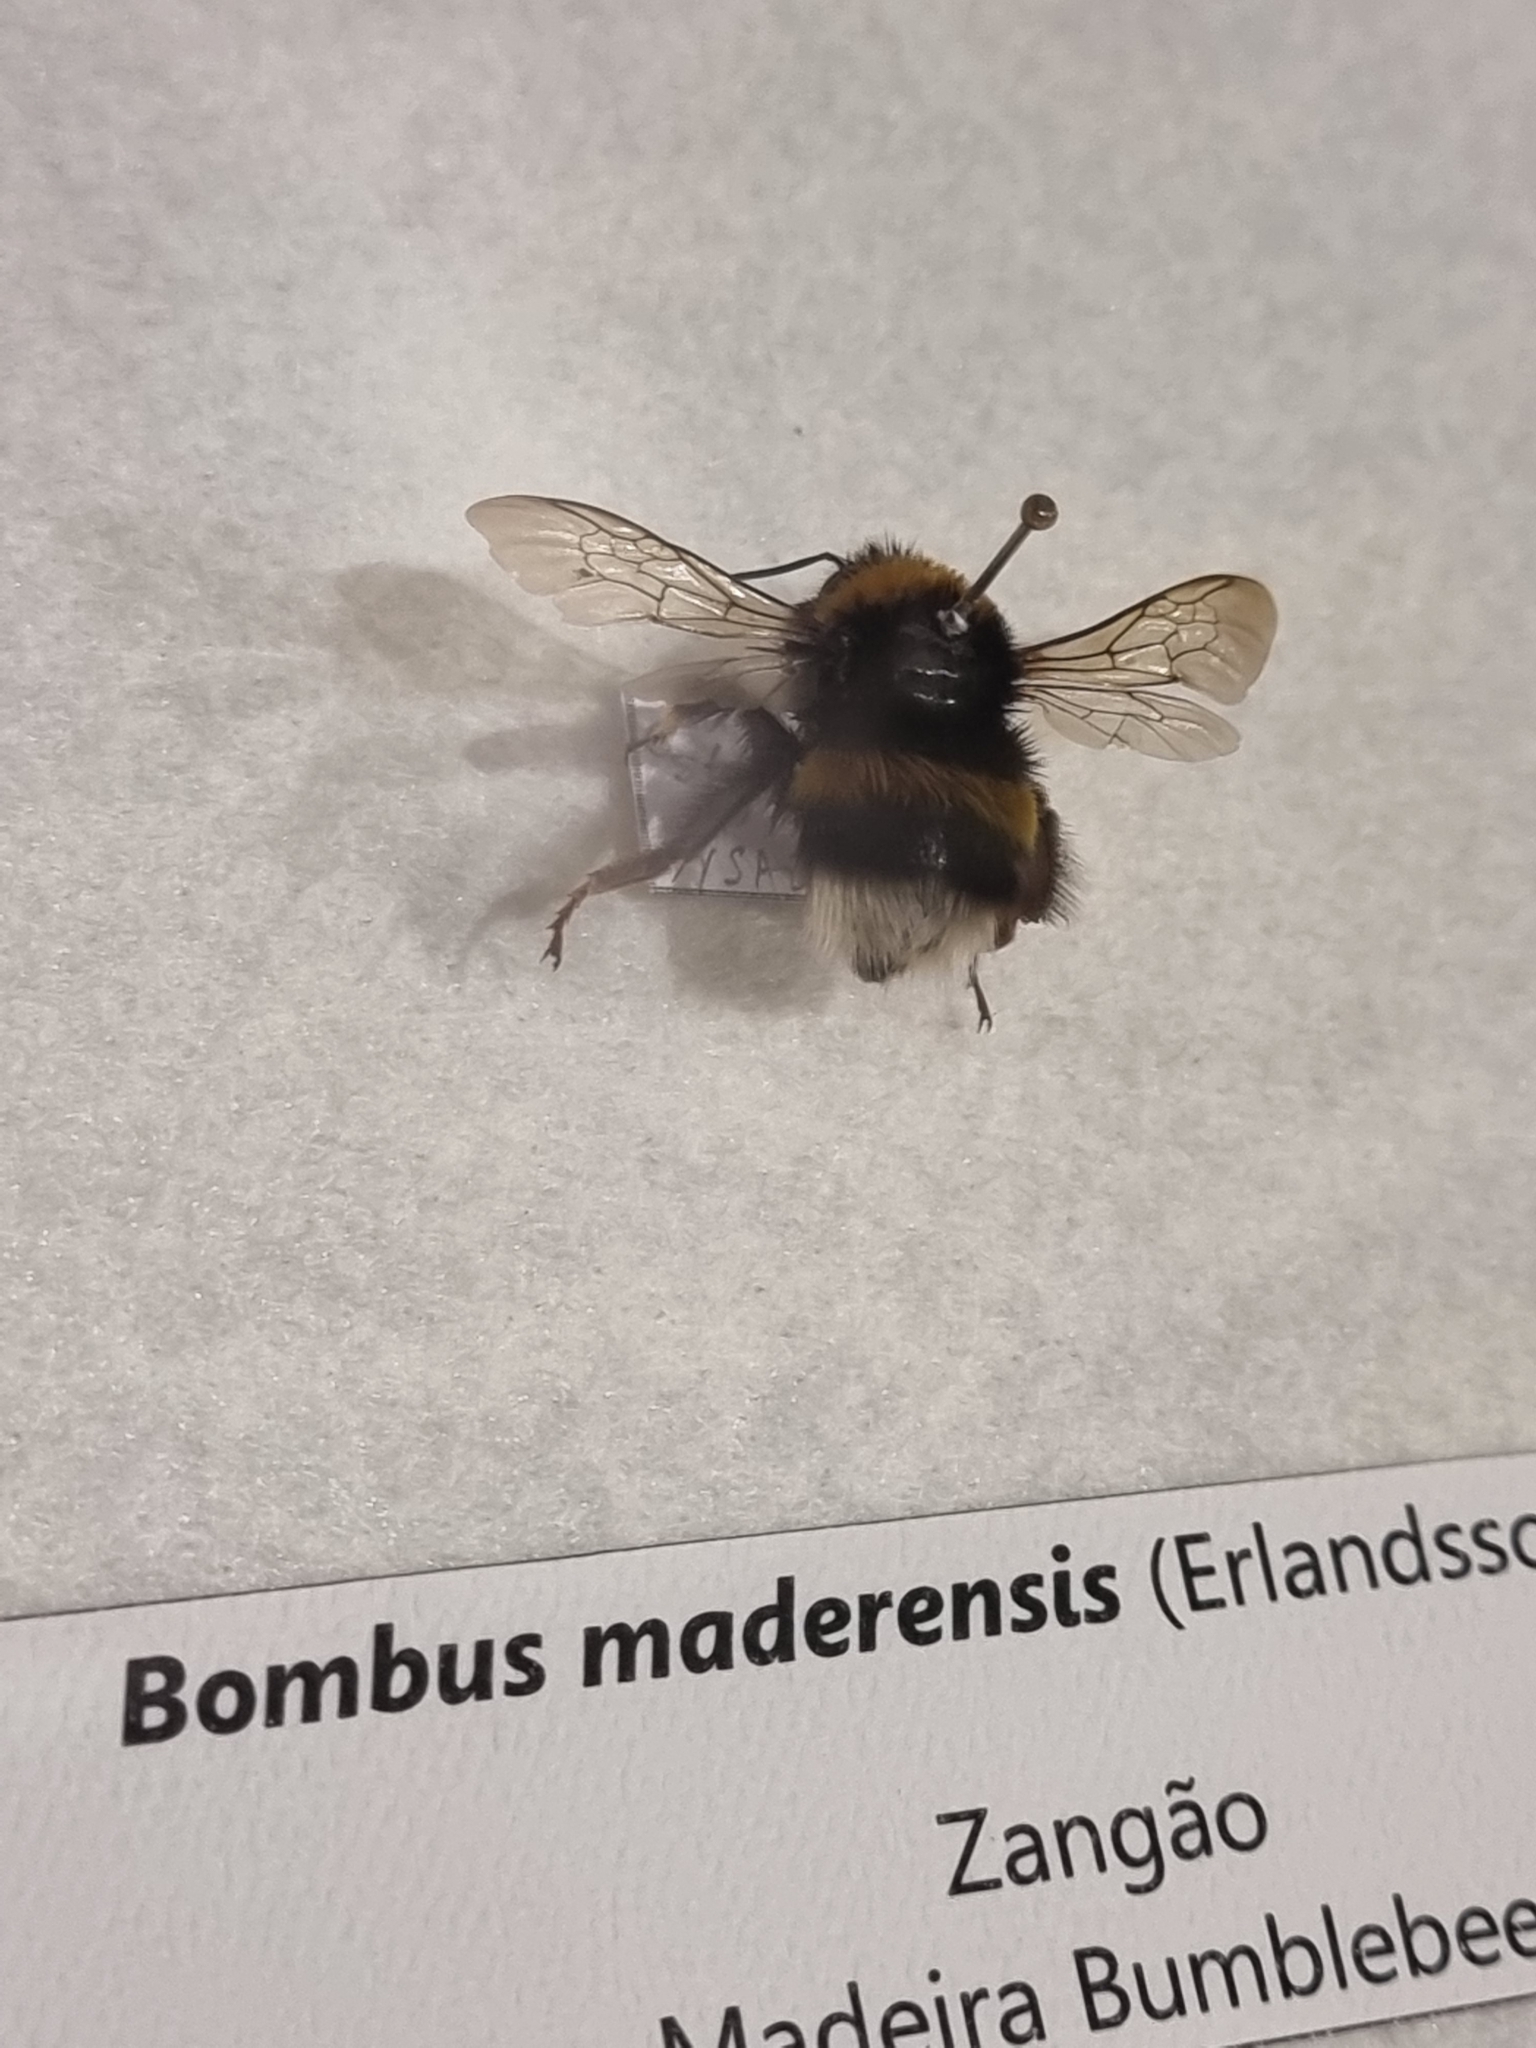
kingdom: Animalia
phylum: Arthropoda
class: Insecta
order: Hymenoptera
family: Apidae
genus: Bombus
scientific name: Bombus terrestris
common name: Buff-tailed bumblebee
